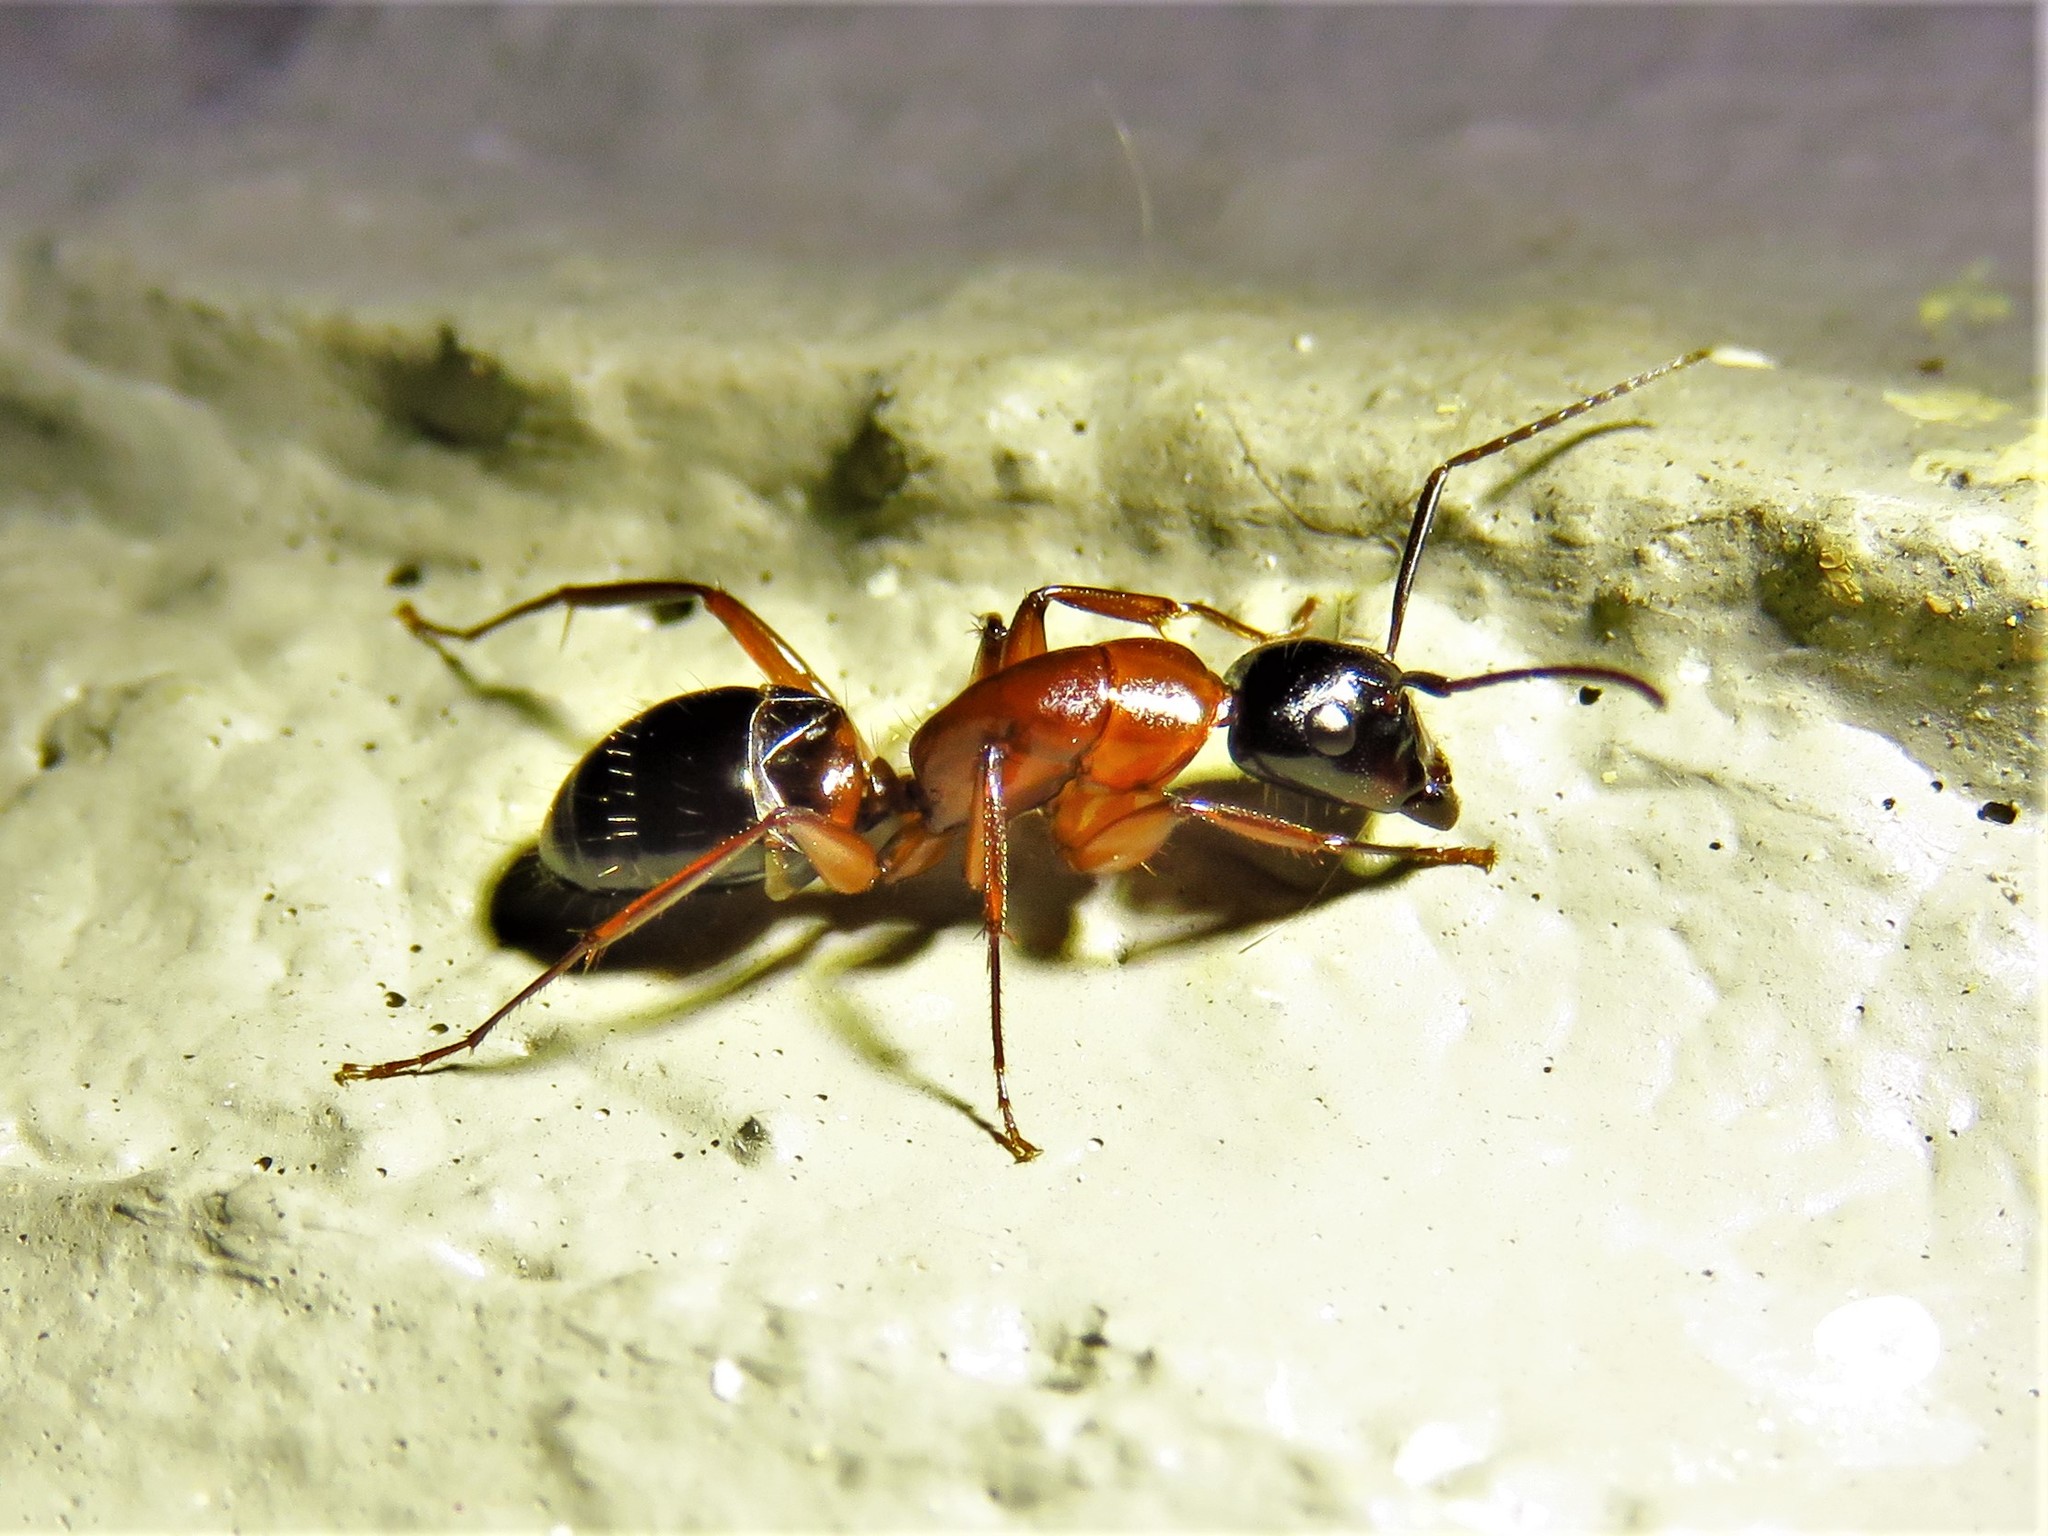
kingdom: Animalia
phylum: Arthropoda
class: Insecta
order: Hymenoptera
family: Formicidae
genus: Camponotus
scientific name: Camponotus texanus
